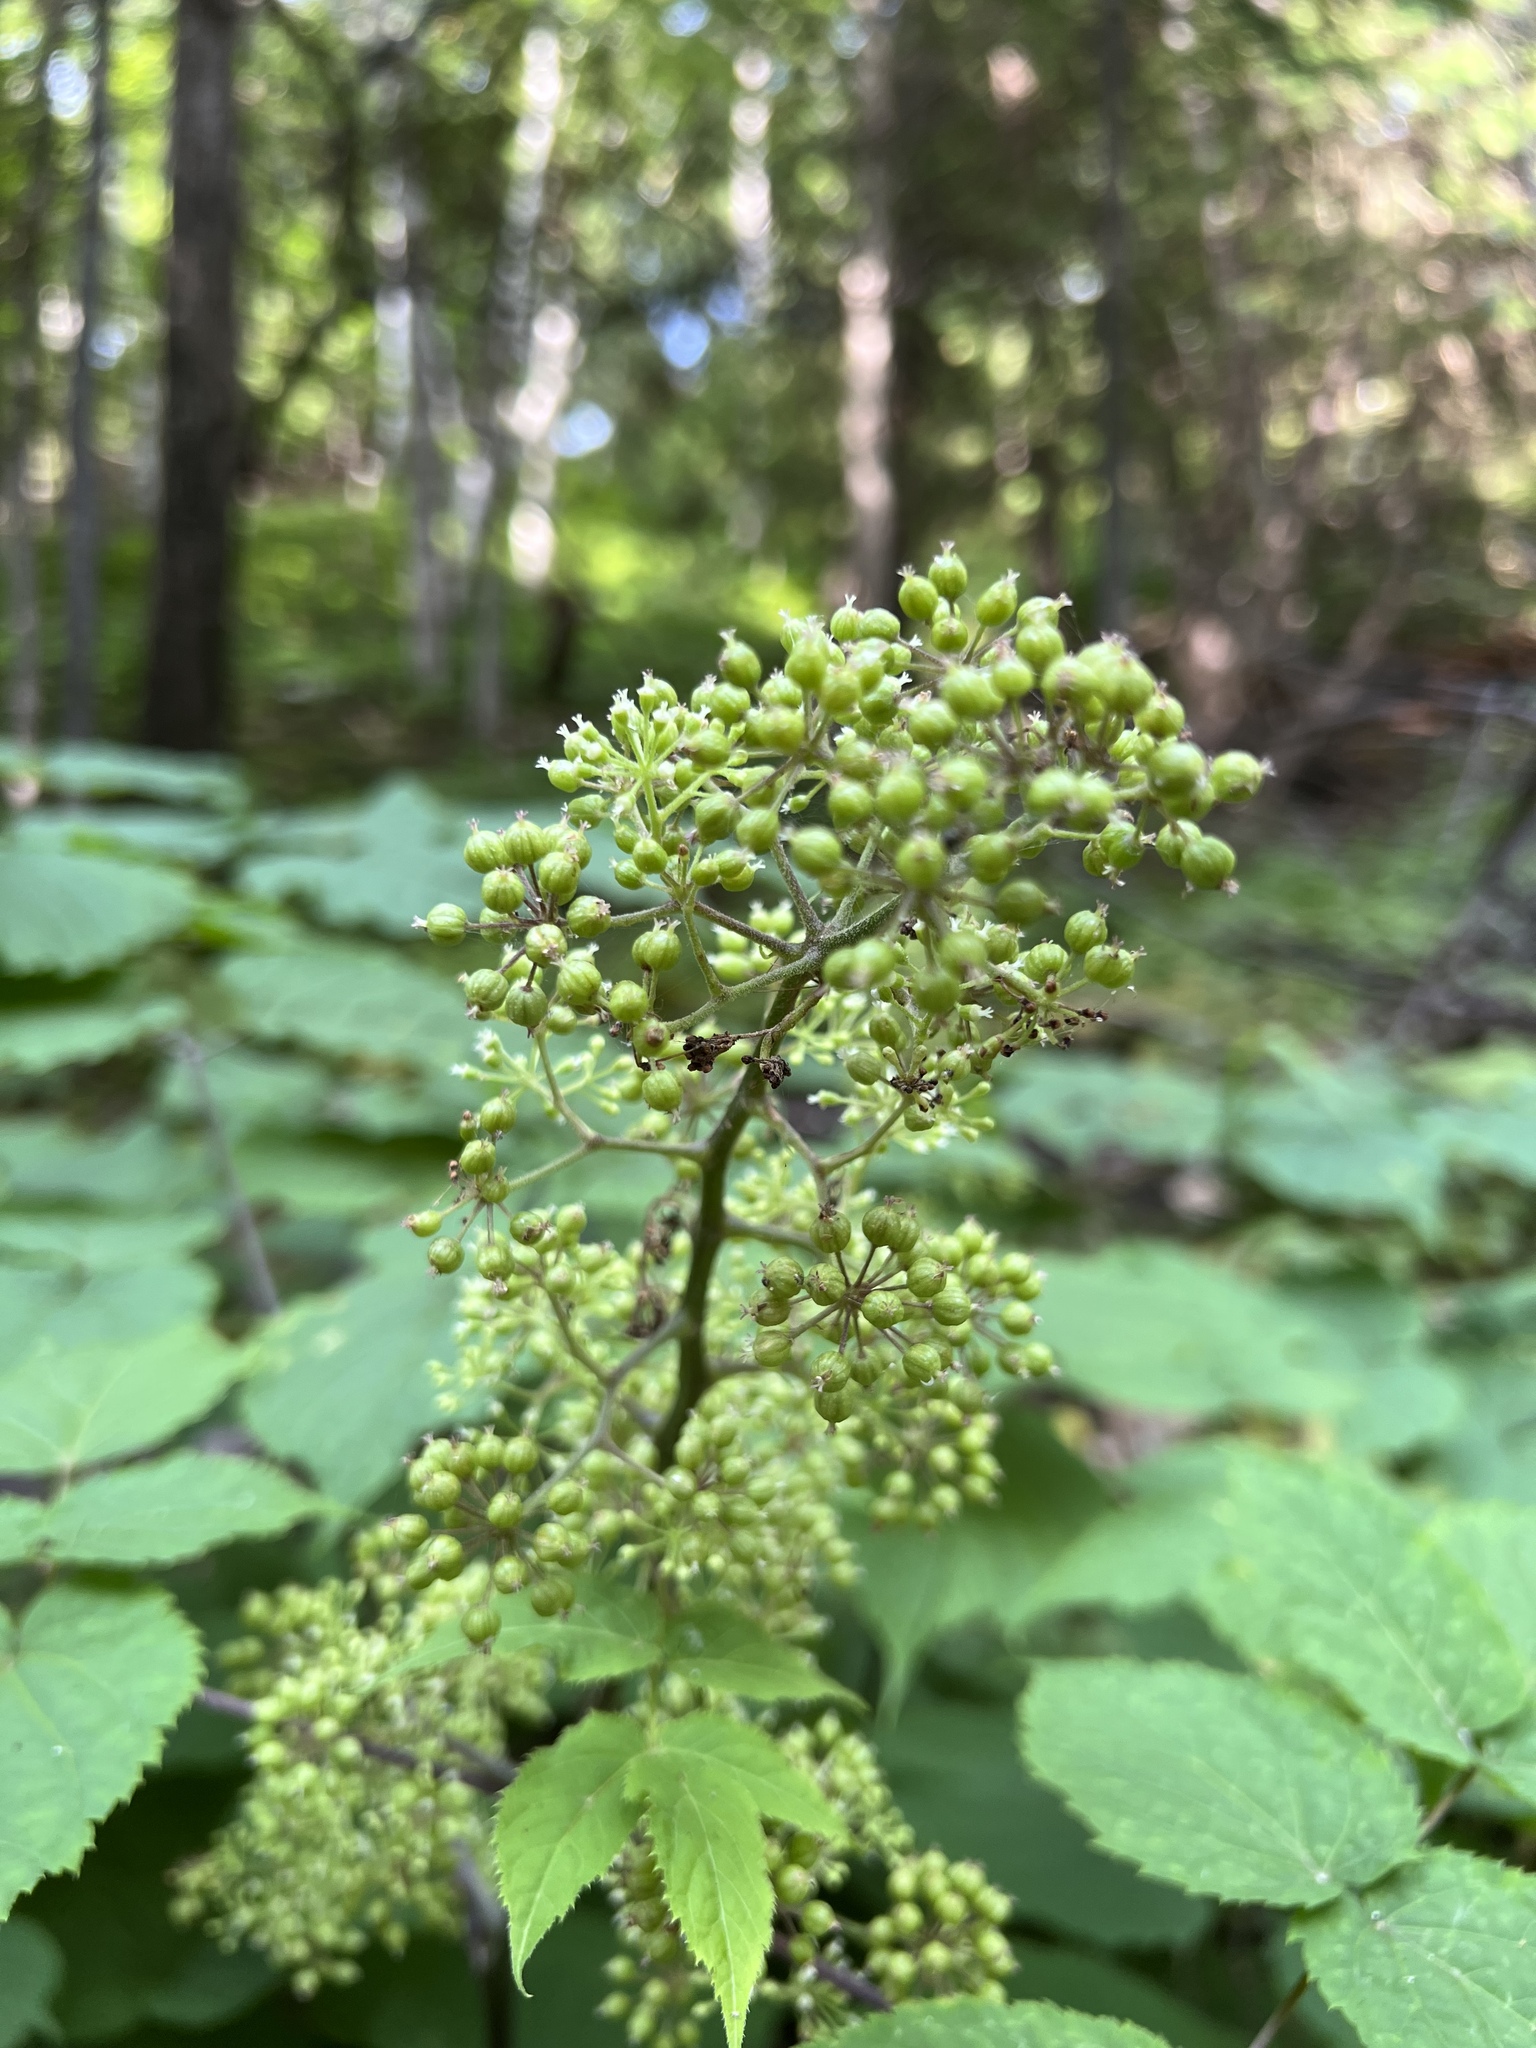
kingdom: Plantae
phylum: Tracheophyta
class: Magnoliopsida
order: Apiales
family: Araliaceae
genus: Aralia
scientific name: Aralia racemosa
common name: American-spikenard
